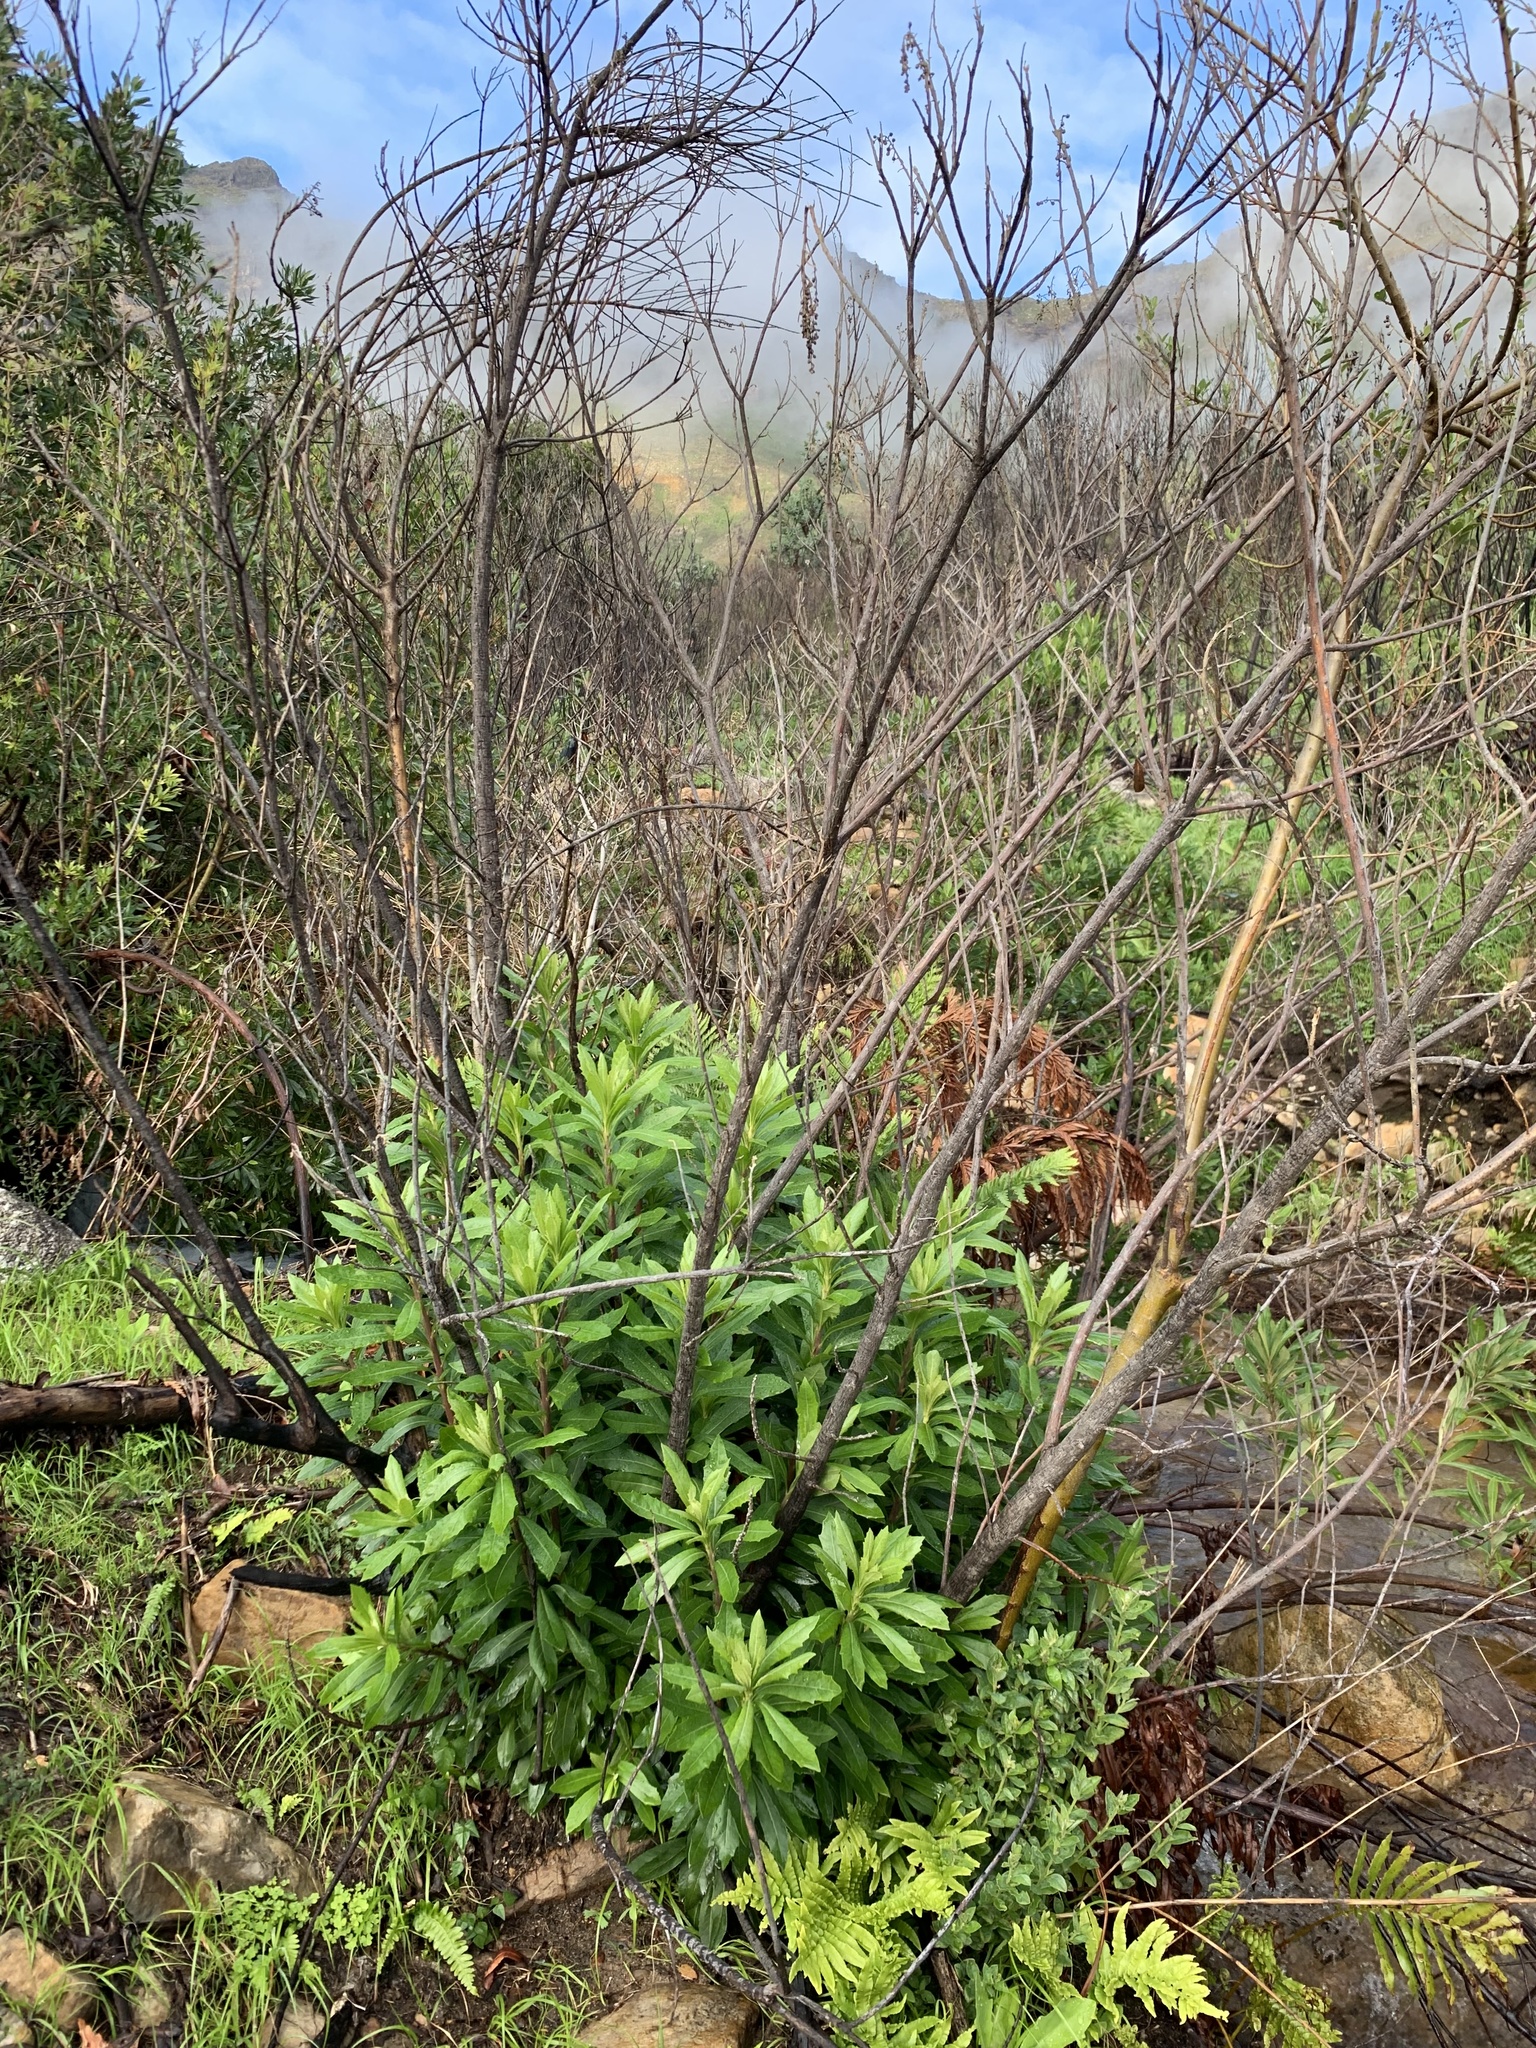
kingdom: Plantae
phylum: Tracheophyta
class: Magnoliopsida
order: Asterales
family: Asteraceae
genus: Brachylaena
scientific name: Brachylaena neriifolia
